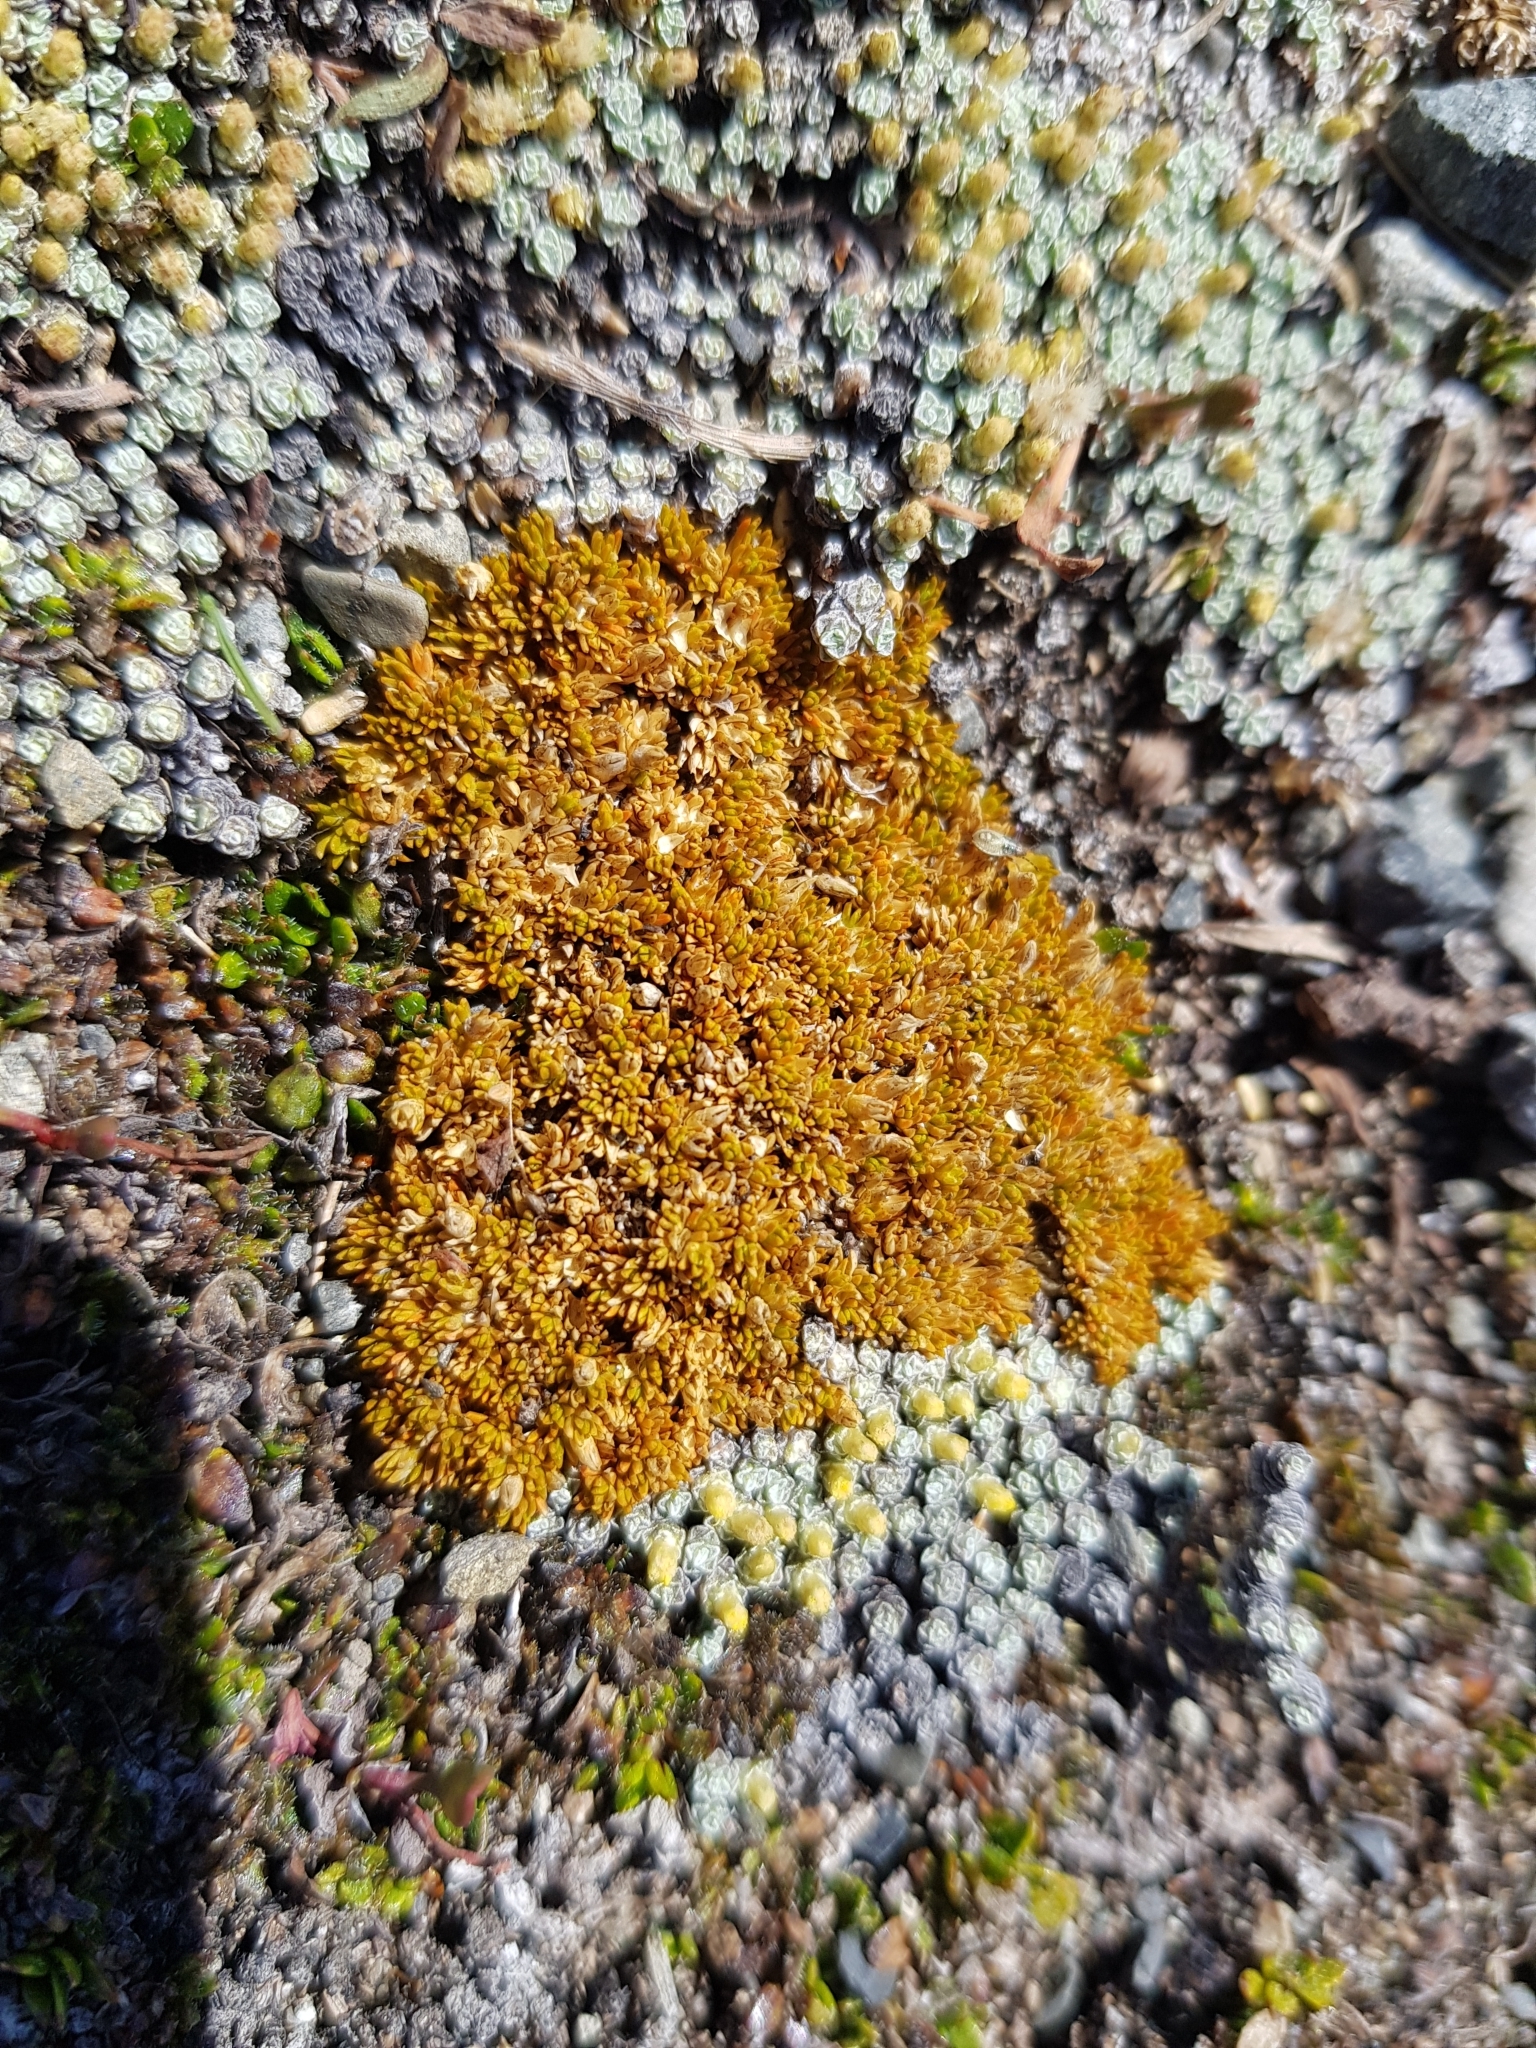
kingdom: Plantae
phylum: Tracheophyta
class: Magnoliopsida
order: Caryophyllales
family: Caryophyllaceae
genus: Scleranthus
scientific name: Scleranthus uniflorus
